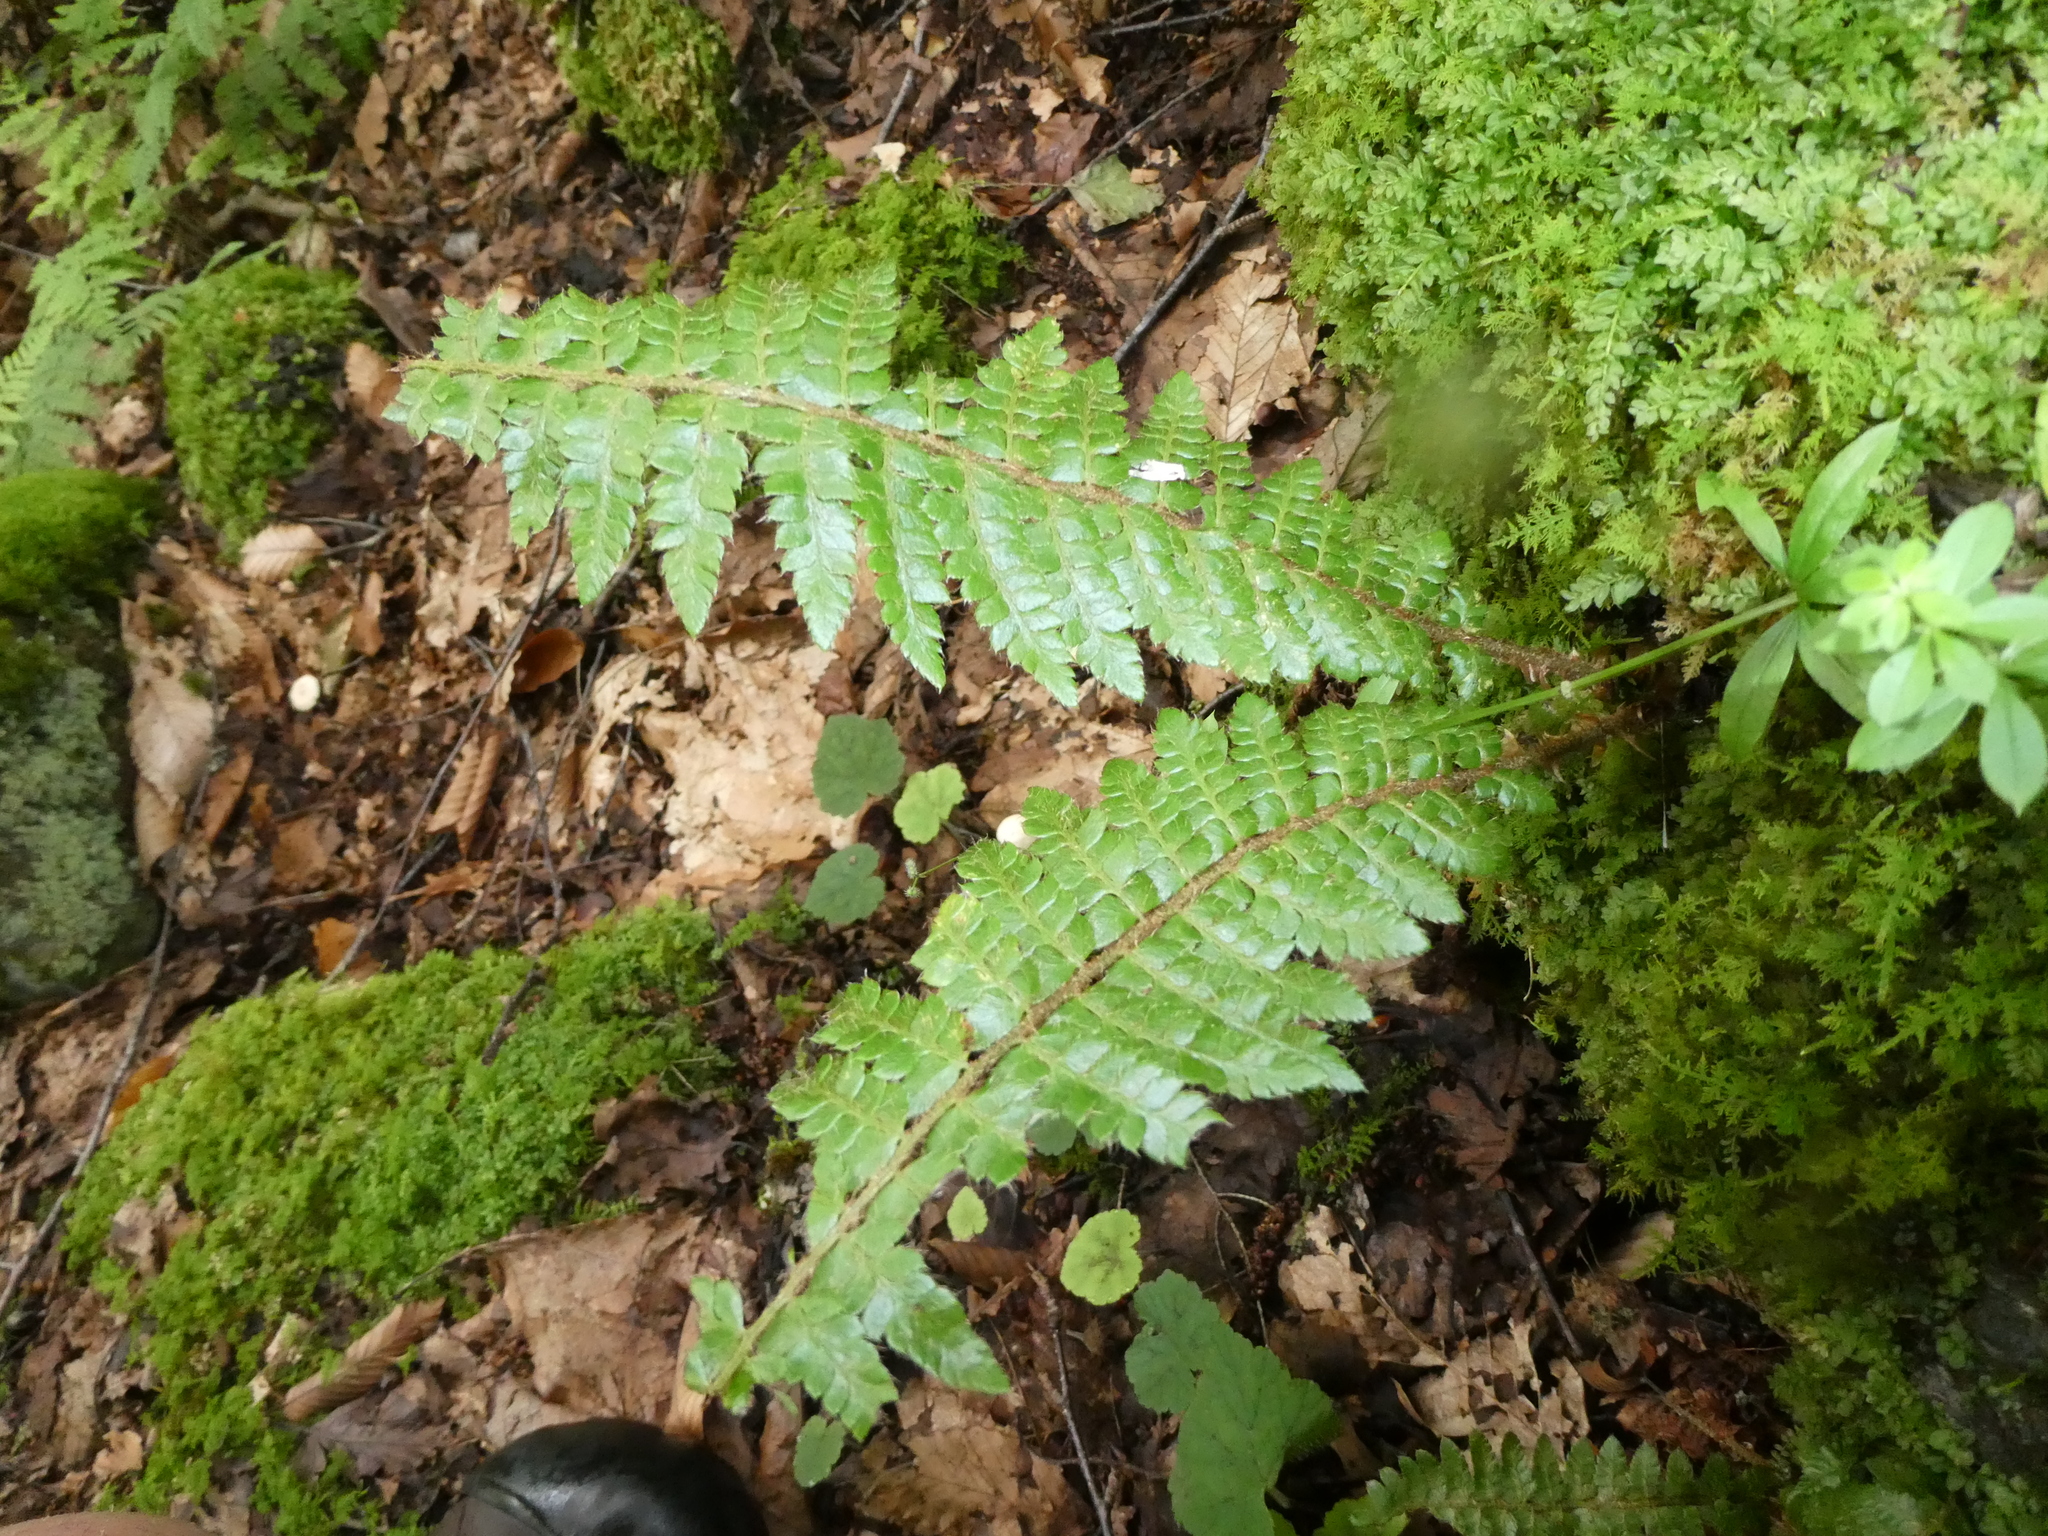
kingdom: Plantae
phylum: Tracheophyta
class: Polypodiopsida
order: Polypodiales
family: Dryopteridaceae
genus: Polystichum
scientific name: Polystichum braunii
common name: Braun's holly fern
